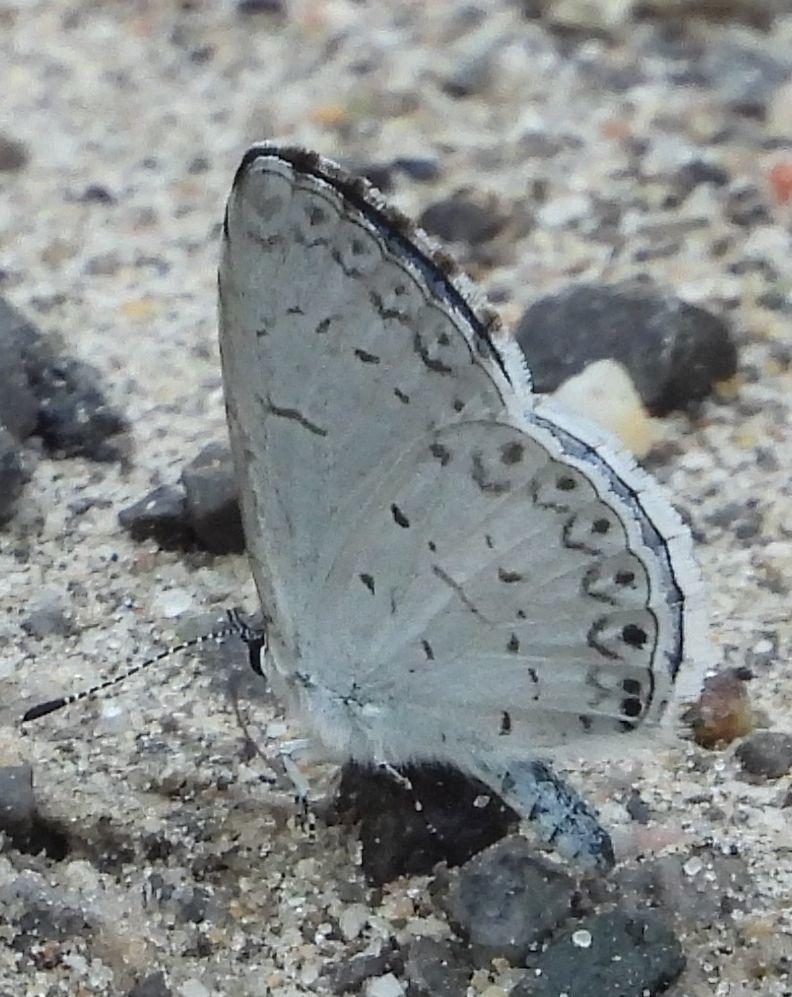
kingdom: Animalia
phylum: Arthropoda
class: Insecta
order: Lepidoptera
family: Lycaenidae
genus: Celastrina
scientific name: Celastrina lucia
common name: Lucia azure
